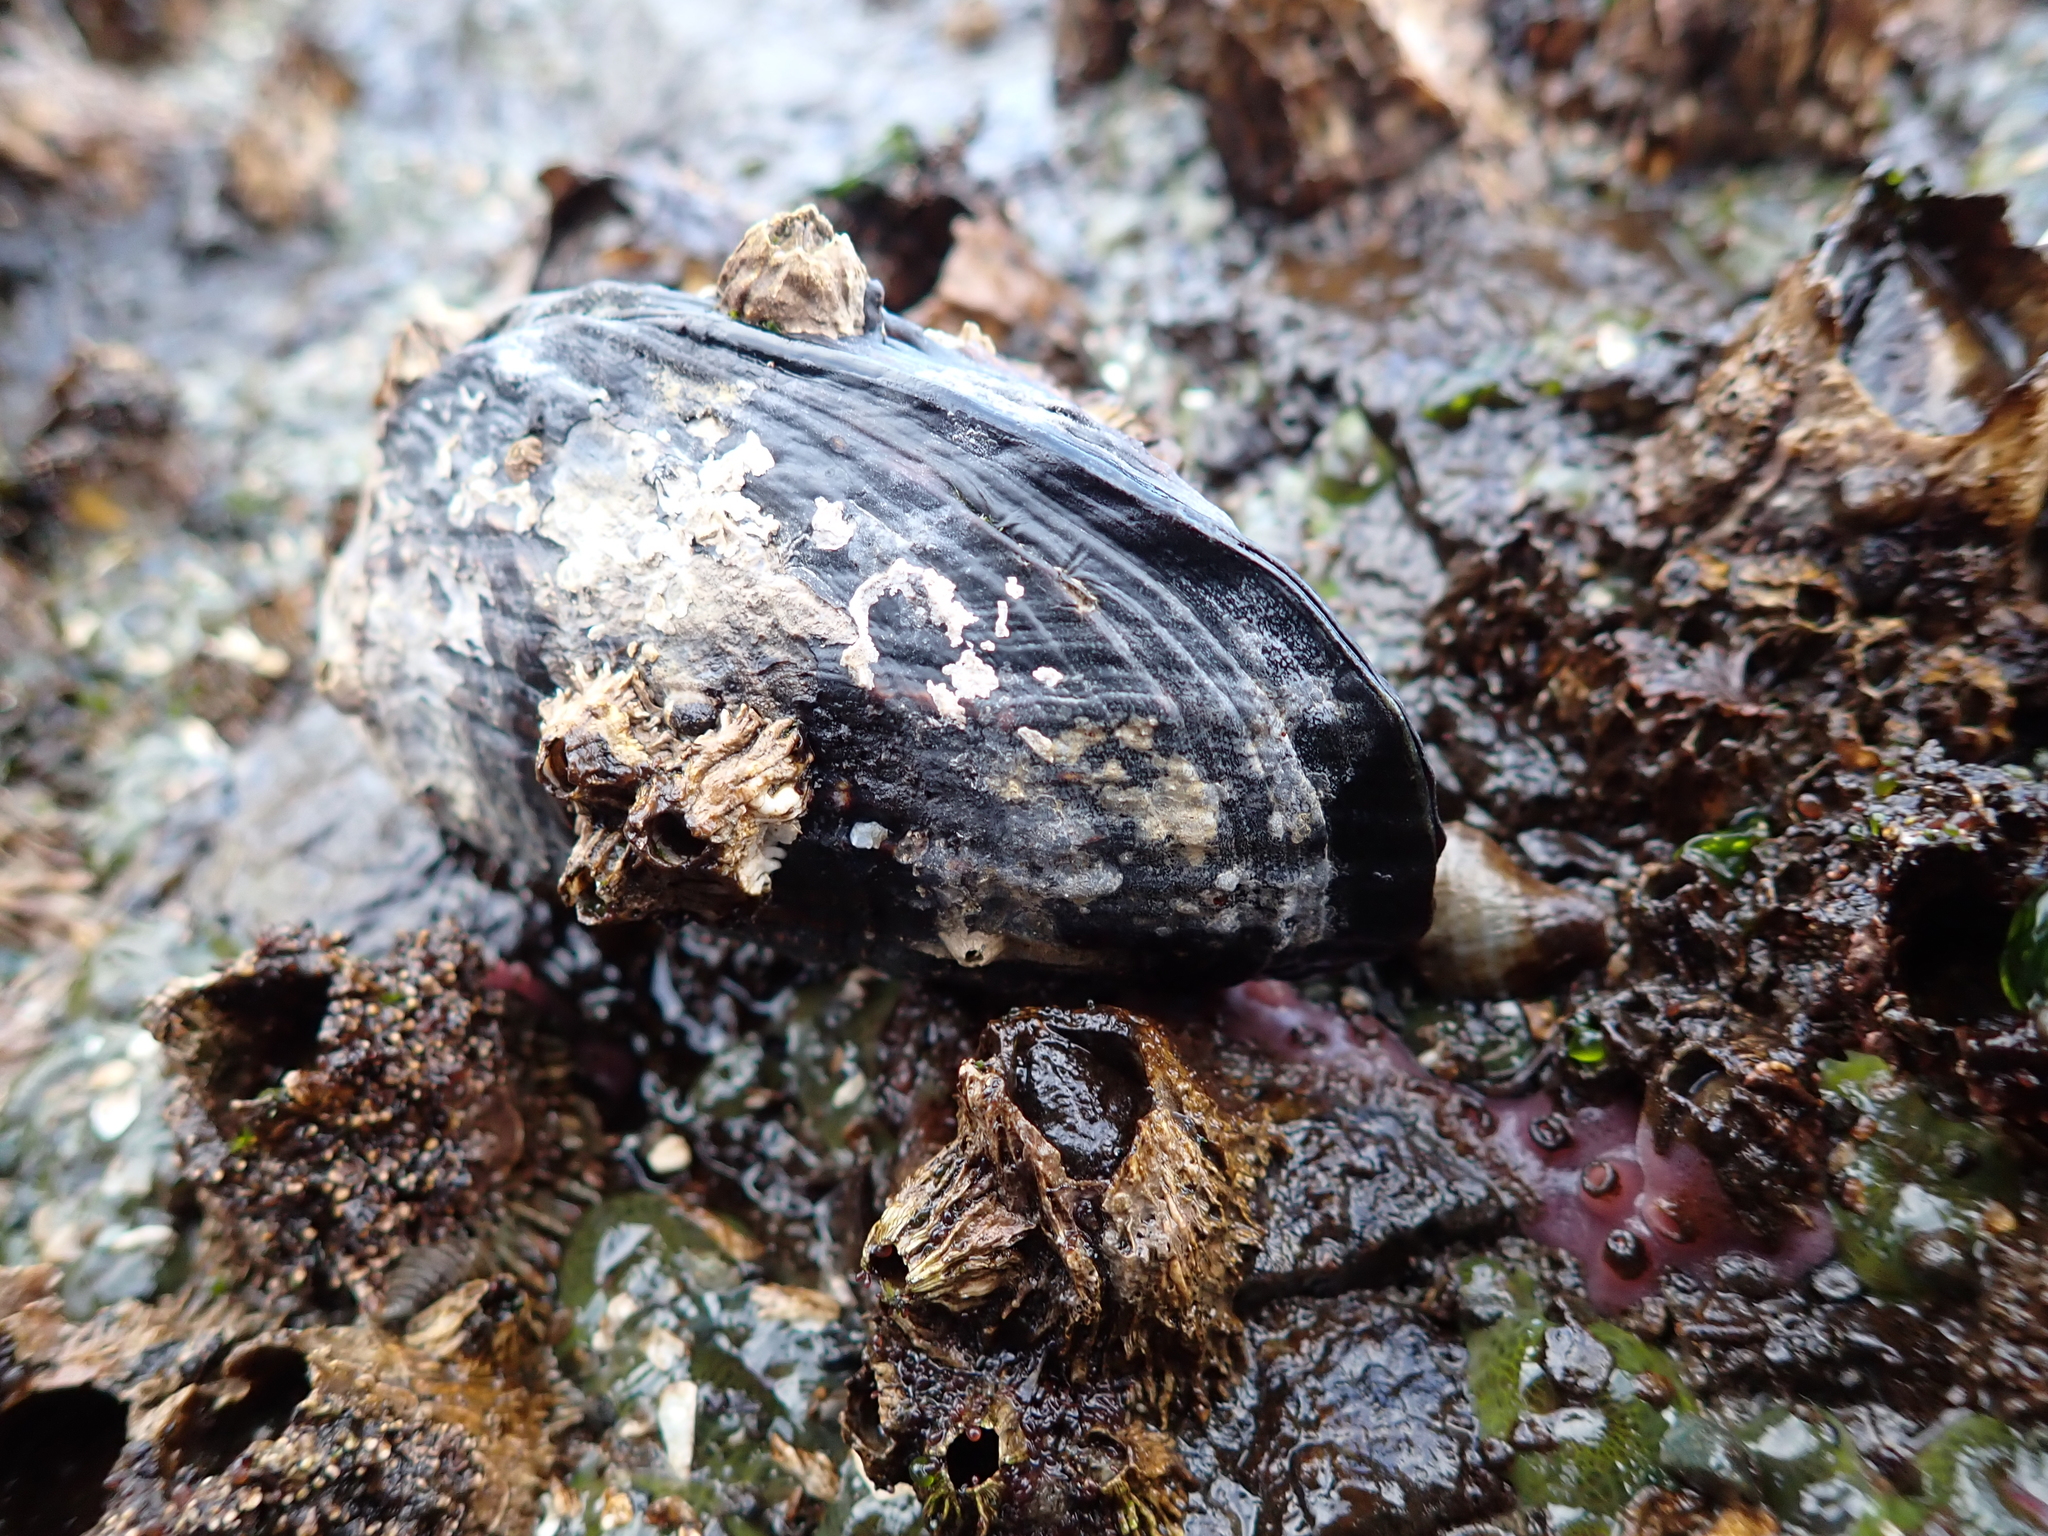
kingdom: Animalia
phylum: Mollusca
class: Bivalvia
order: Mytilida
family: Mytilidae
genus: Mytilus
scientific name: Mytilus californianus
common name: California mussel
